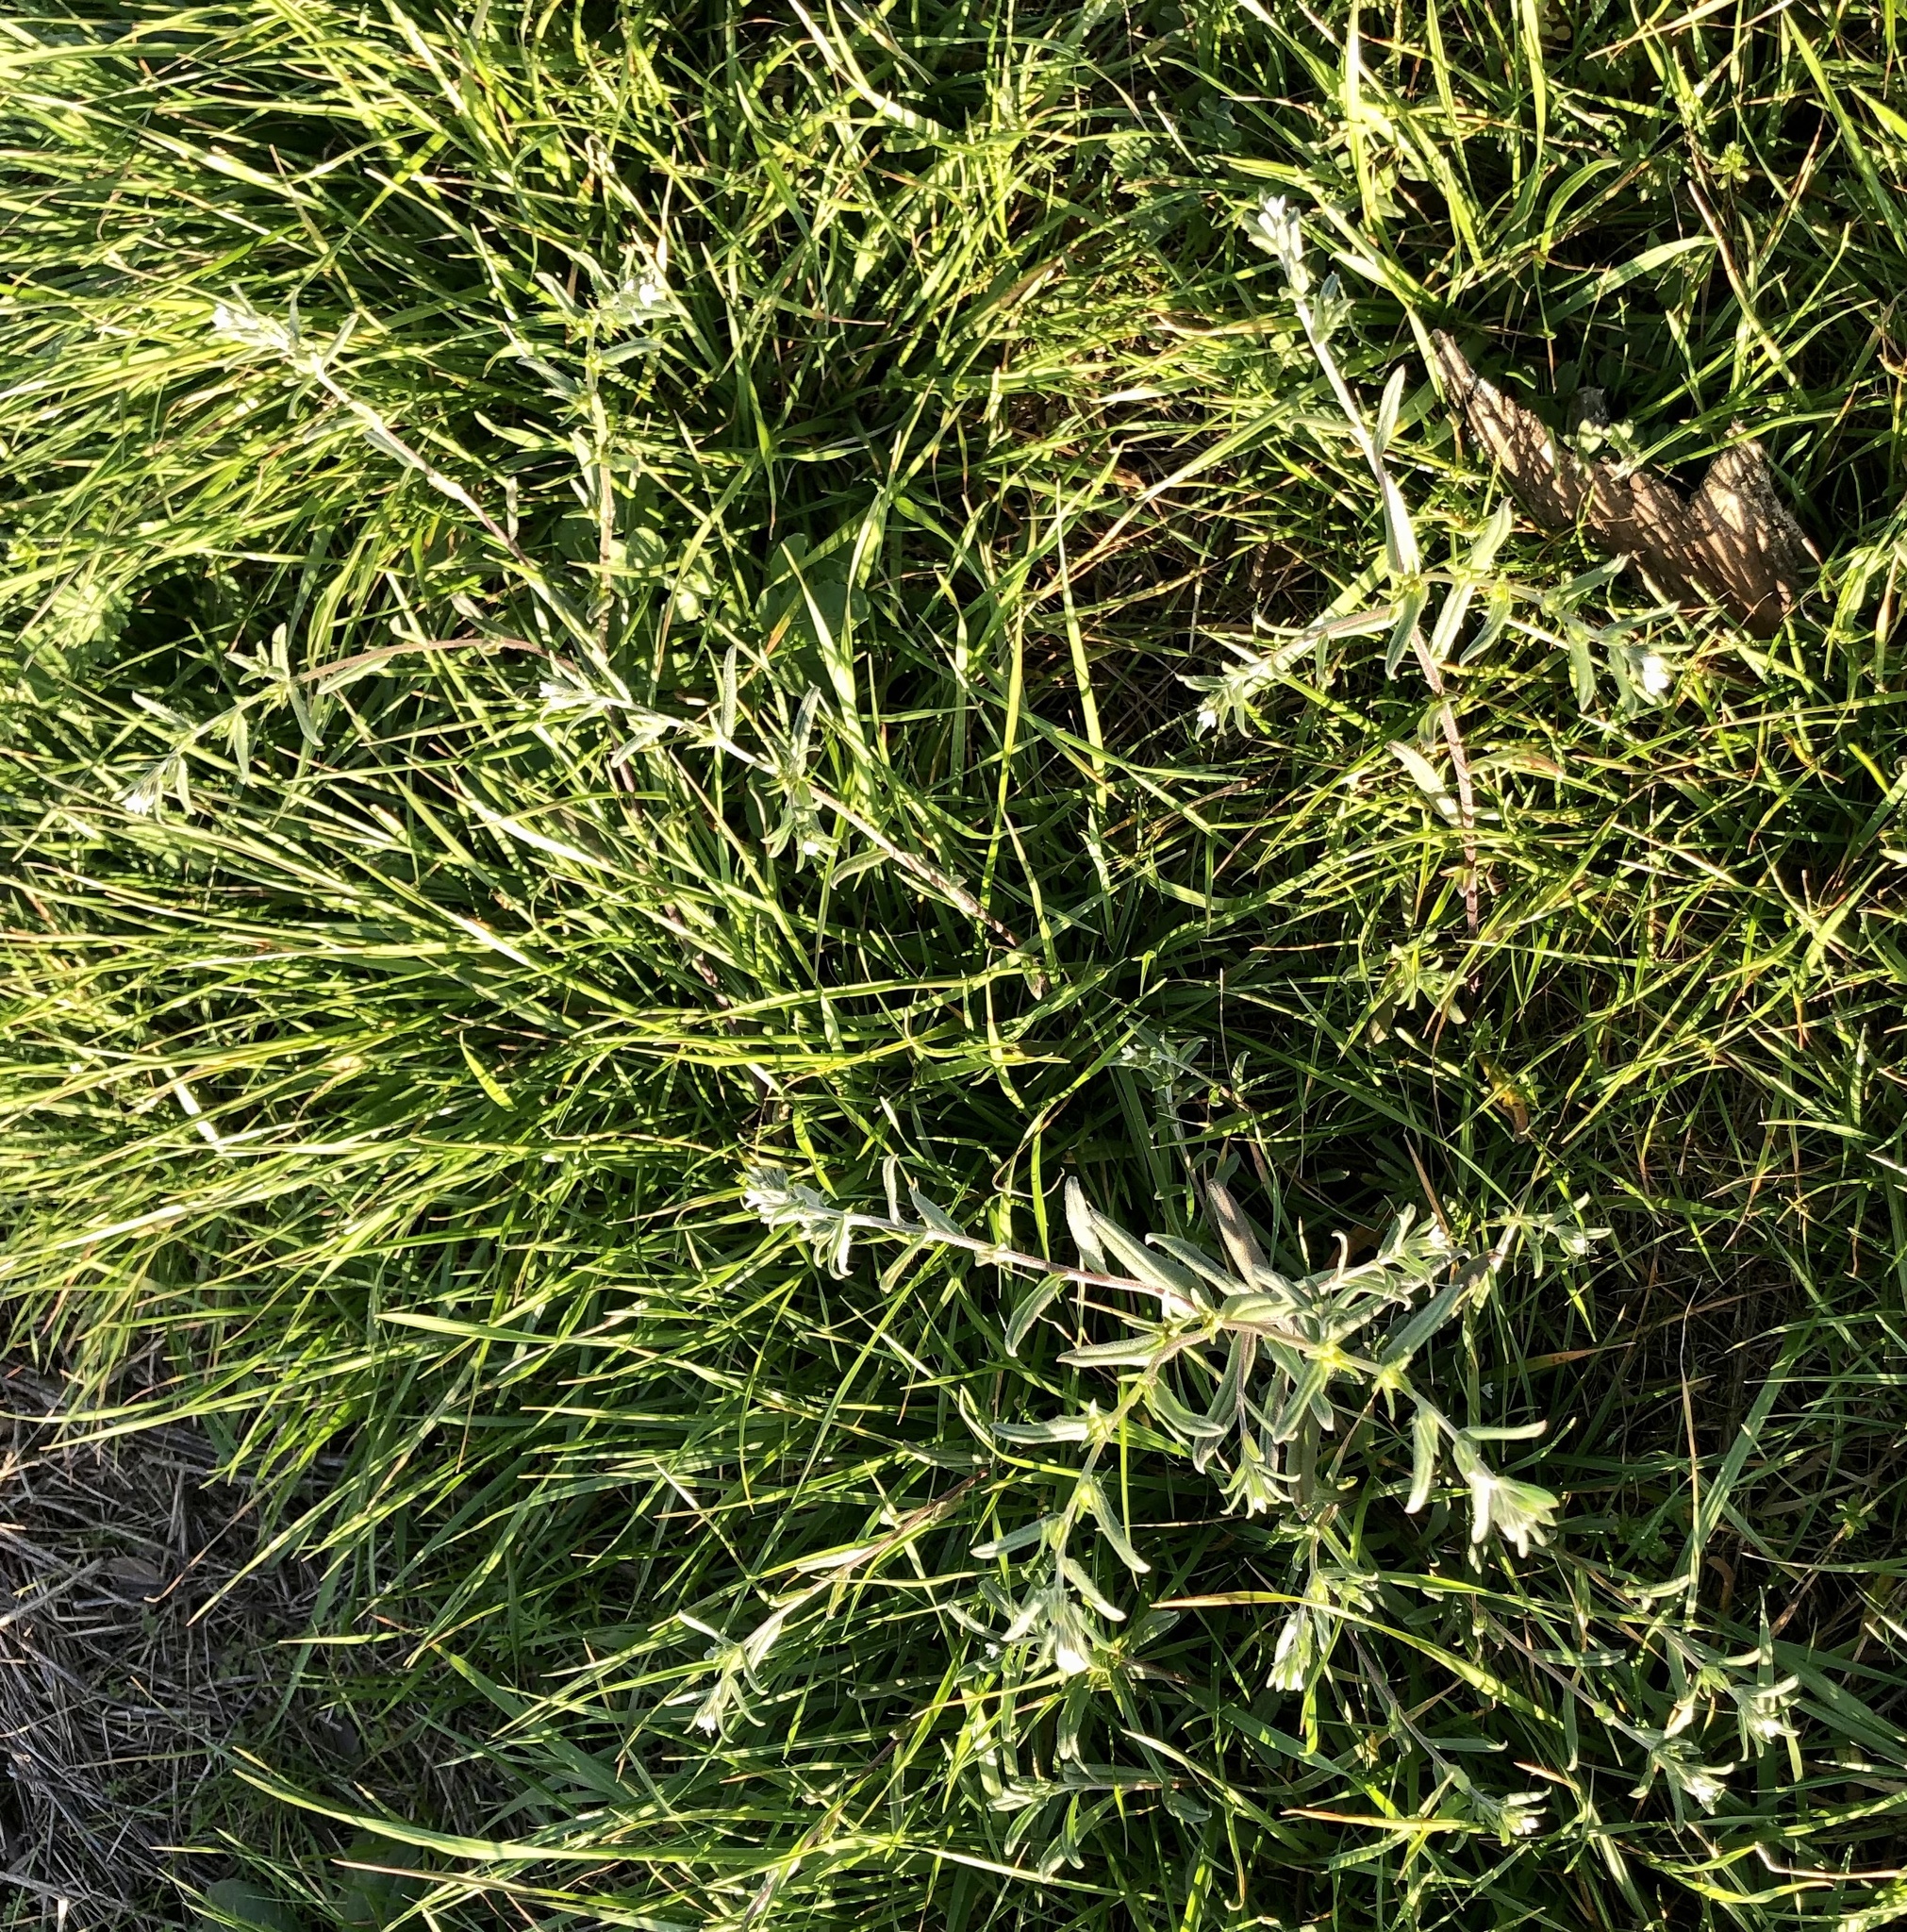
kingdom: Plantae
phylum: Tracheophyta
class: Magnoliopsida
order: Boraginales
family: Boraginaceae
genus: Buglossoides
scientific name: Buglossoides arvensis
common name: Corn gromwell
